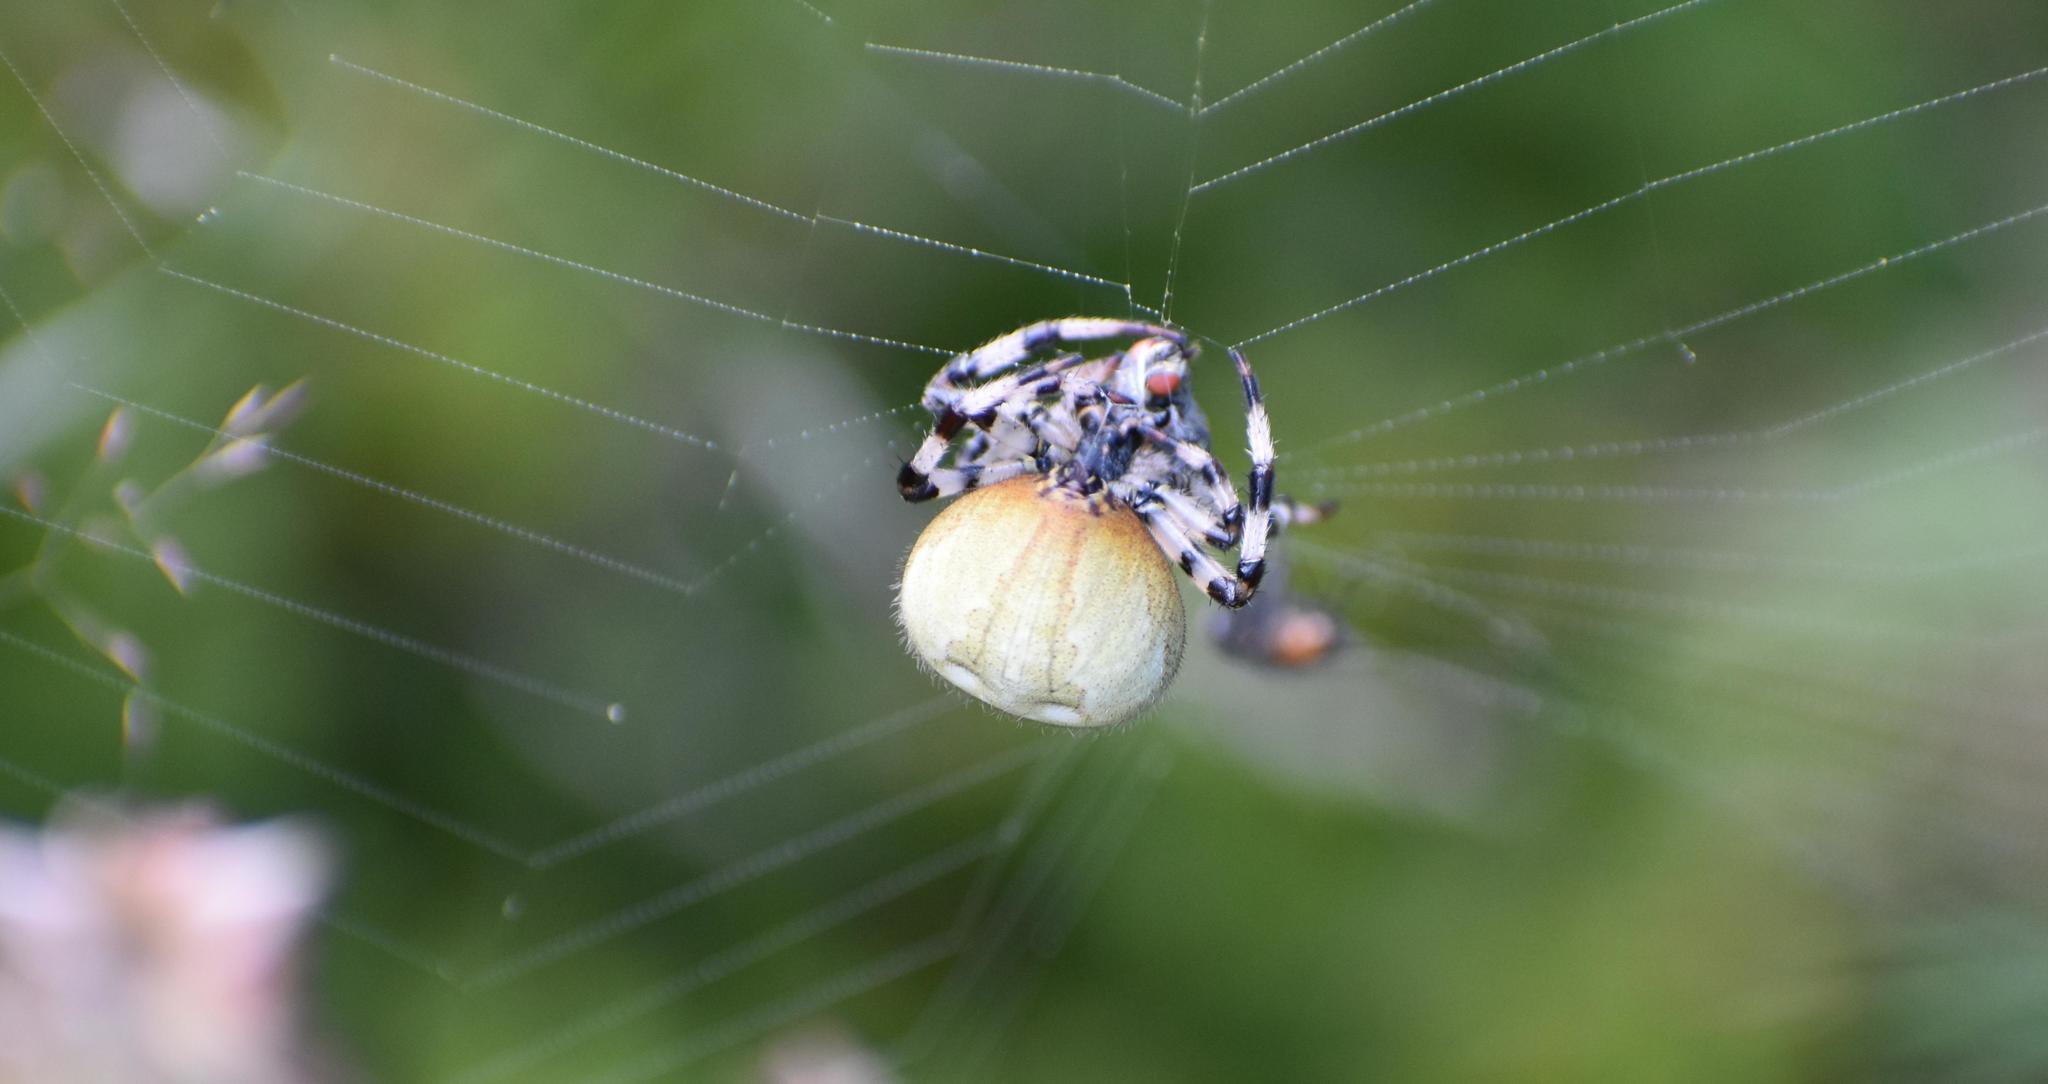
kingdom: Animalia
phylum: Arthropoda
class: Arachnida
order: Araneae
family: Araneidae
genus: Araneus
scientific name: Araneus quadratus
